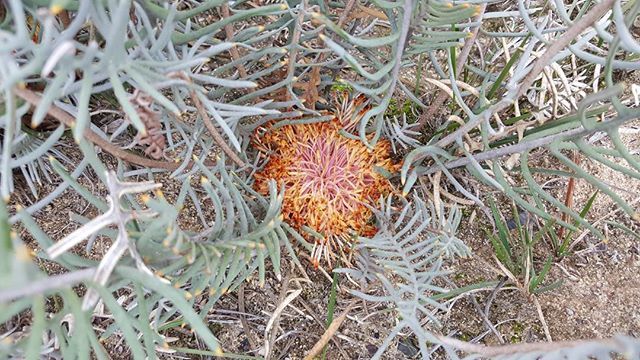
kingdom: Plantae
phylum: Tracheophyta
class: Magnoliopsida
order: Proteales
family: Proteaceae
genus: Banksia
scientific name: Banksia pteridifolia
